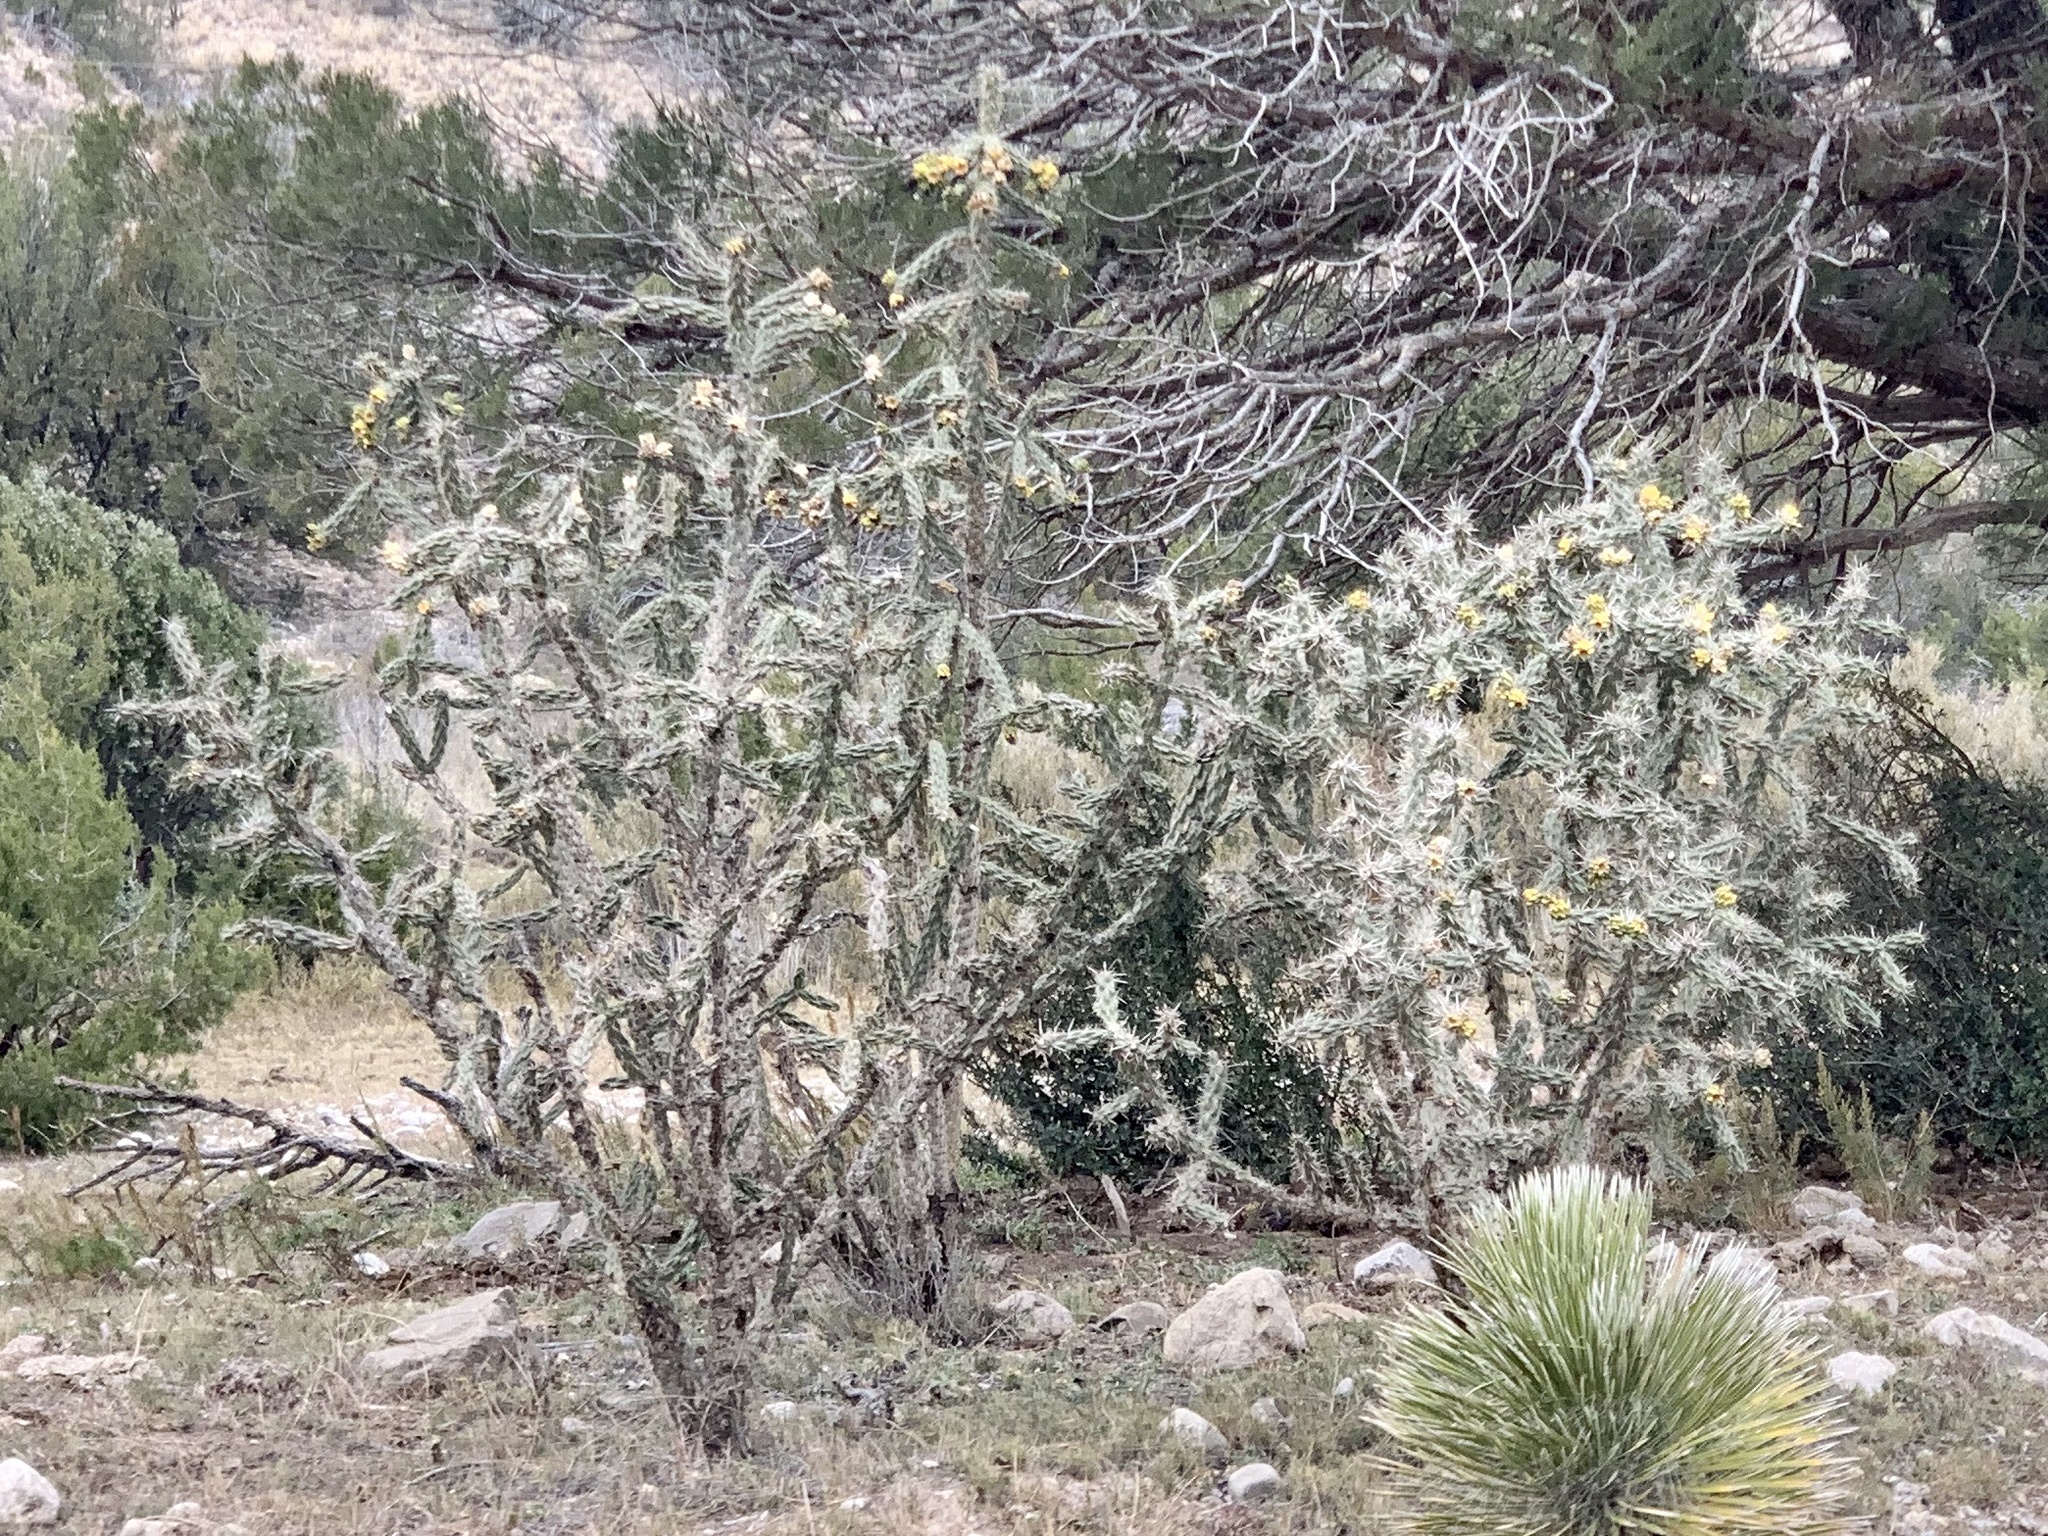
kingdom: Plantae
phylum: Tracheophyta
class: Magnoliopsida
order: Caryophyllales
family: Cactaceae
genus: Cylindropuntia
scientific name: Cylindropuntia imbricata
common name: Candelabrum cactus
